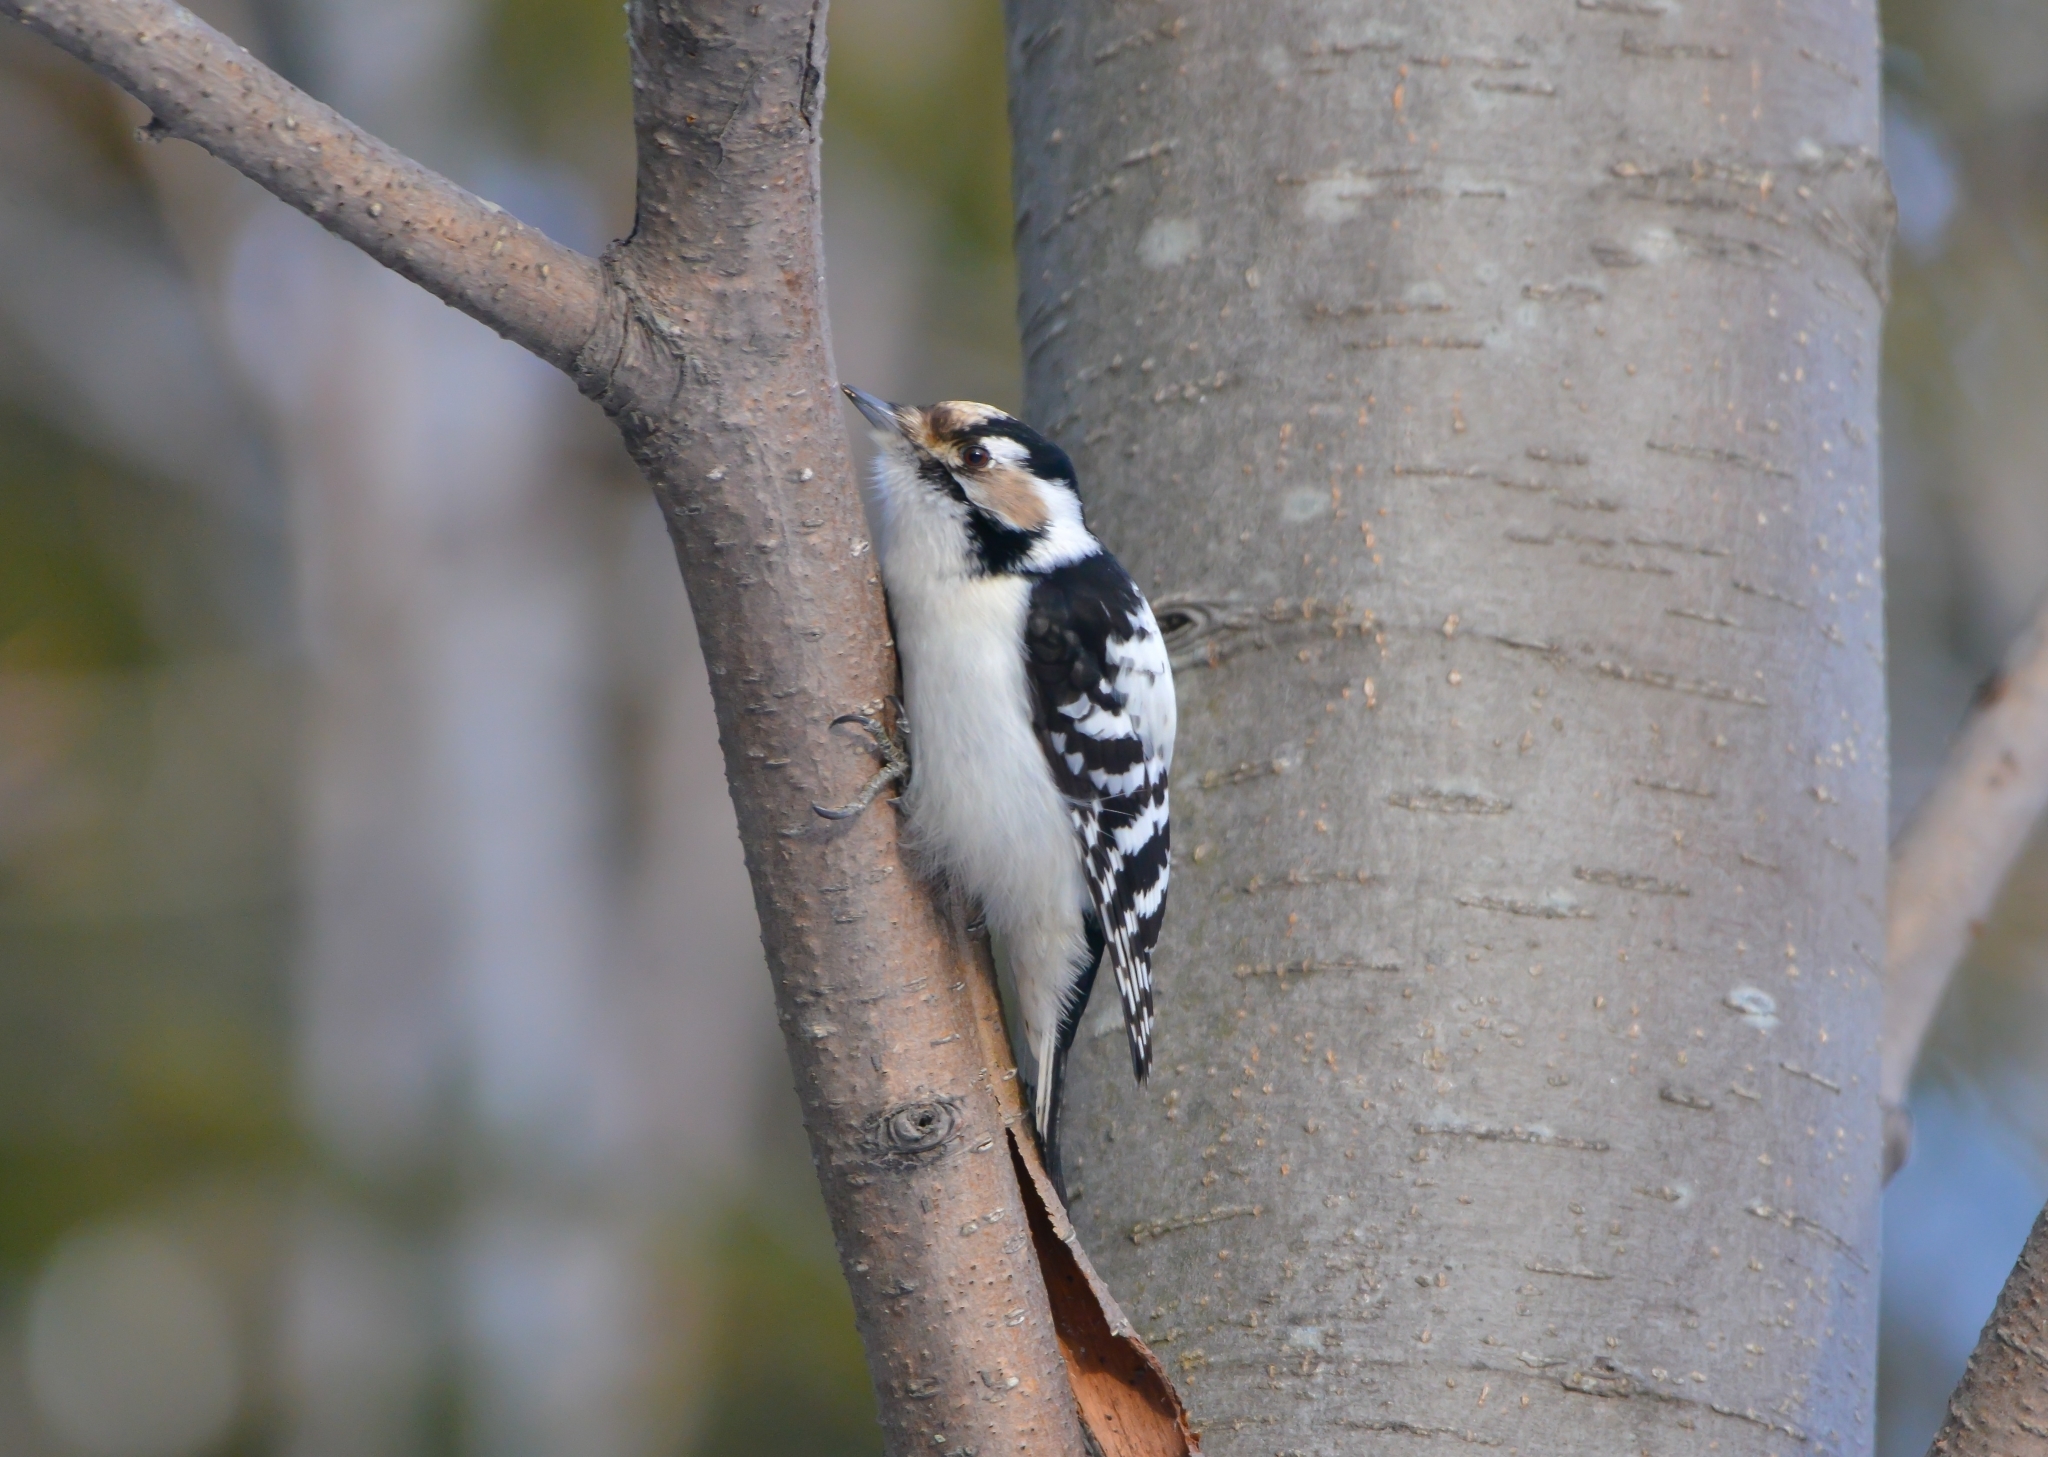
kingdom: Animalia
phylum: Chordata
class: Aves
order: Piciformes
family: Picidae
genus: Dryobates
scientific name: Dryobates minor
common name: Lesser spotted woodpecker
